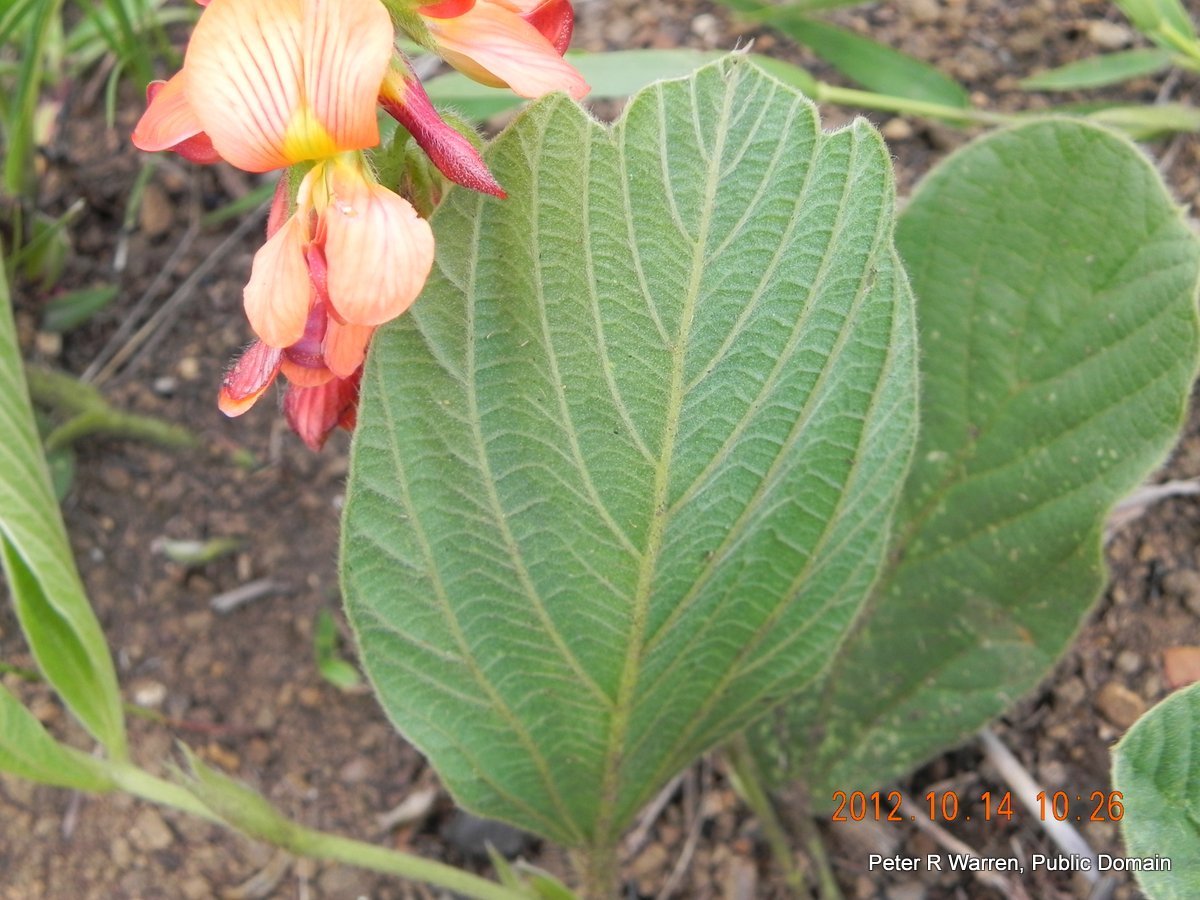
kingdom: Plantae
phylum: Tracheophyta
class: Magnoliopsida
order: Fabales
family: Fabaceae
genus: Eriosema
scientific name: Eriosema distinctum
